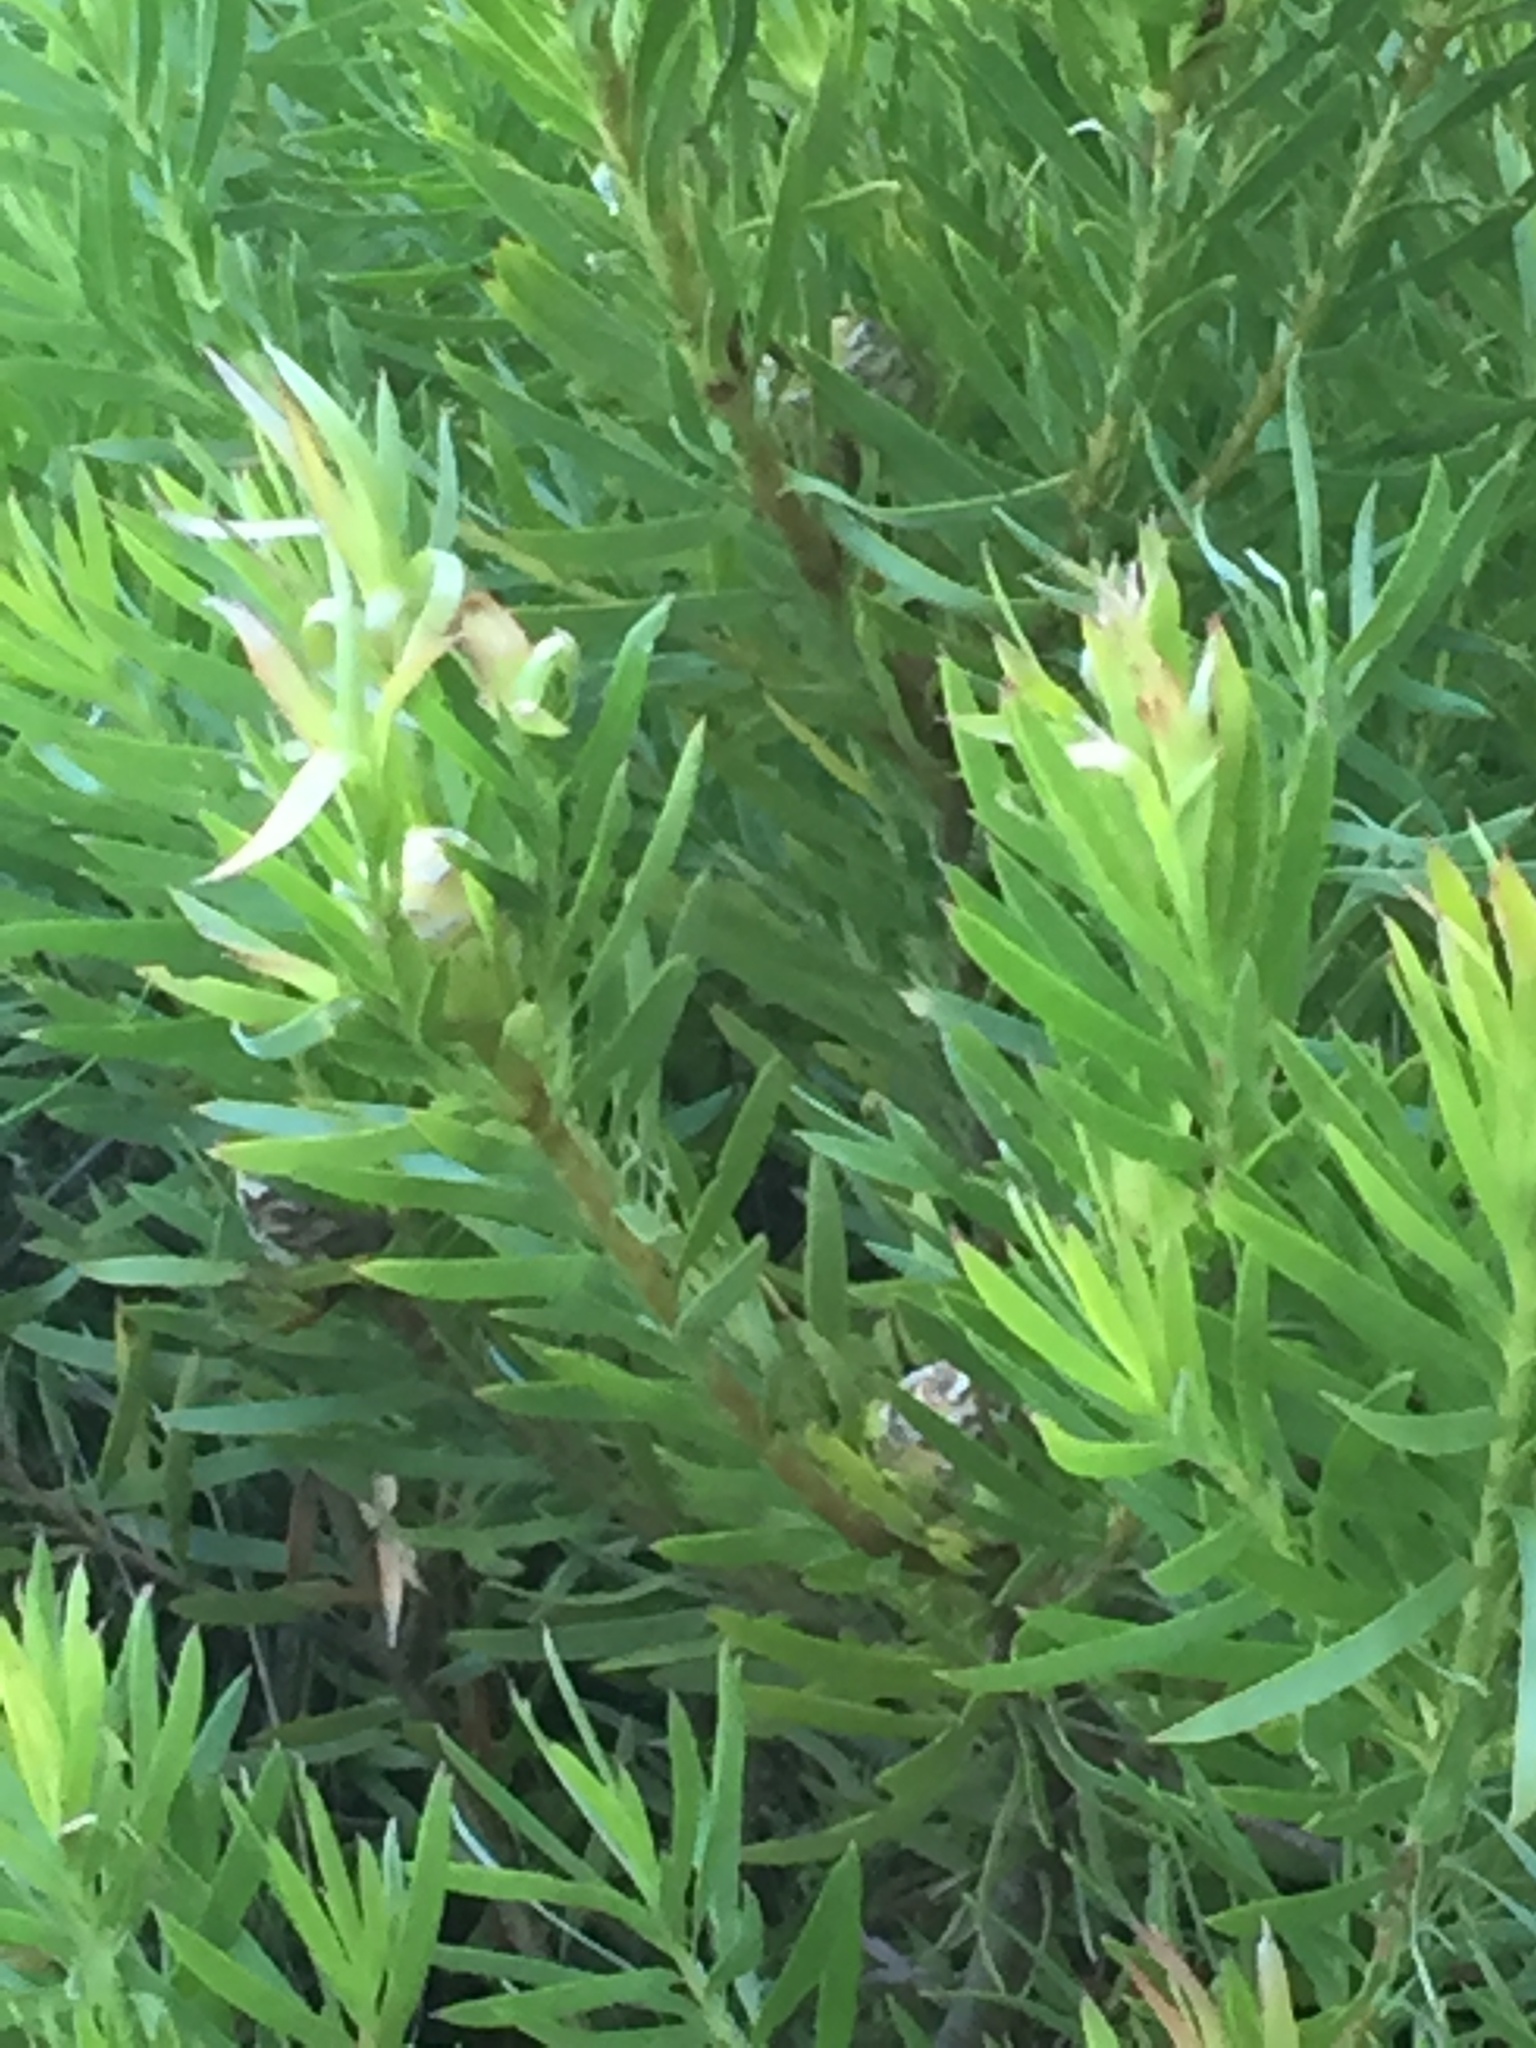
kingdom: Plantae
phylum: Tracheophyta
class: Magnoliopsida
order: Proteales
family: Proteaceae
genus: Leucadendron
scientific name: Leucadendron xanthoconus
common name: Sickle-leaf conebush
